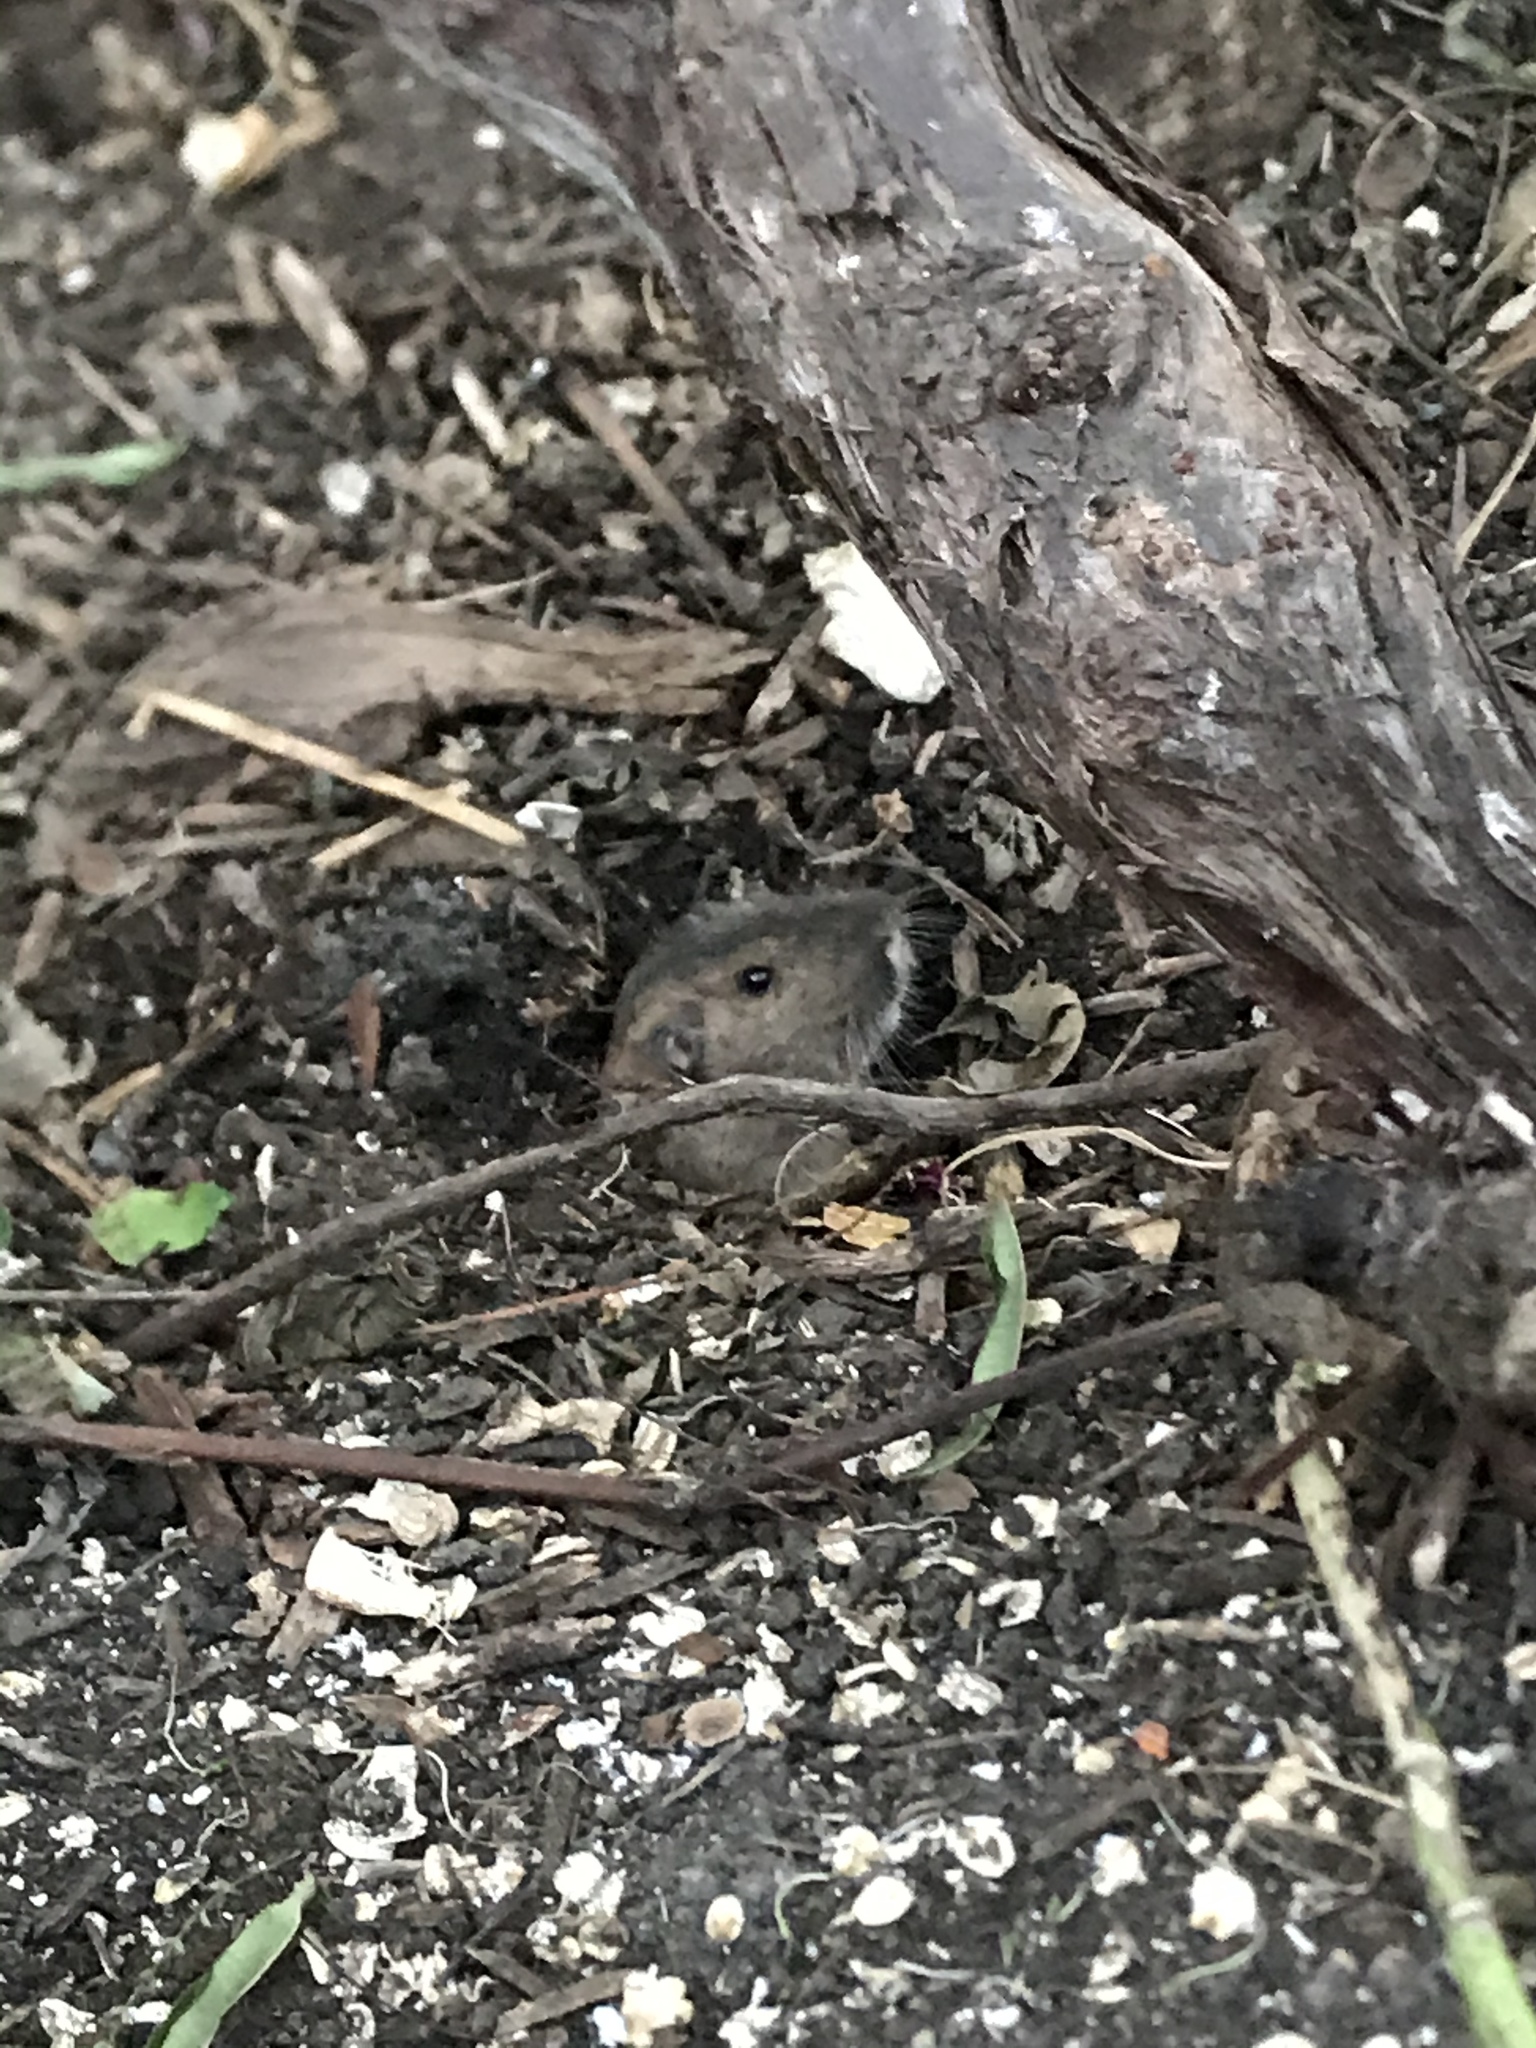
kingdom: Animalia
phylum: Chordata
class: Mammalia
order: Rodentia
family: Geomyidae
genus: Thomomys
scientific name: Thomomys bottae
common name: Botta's pocket gopher
